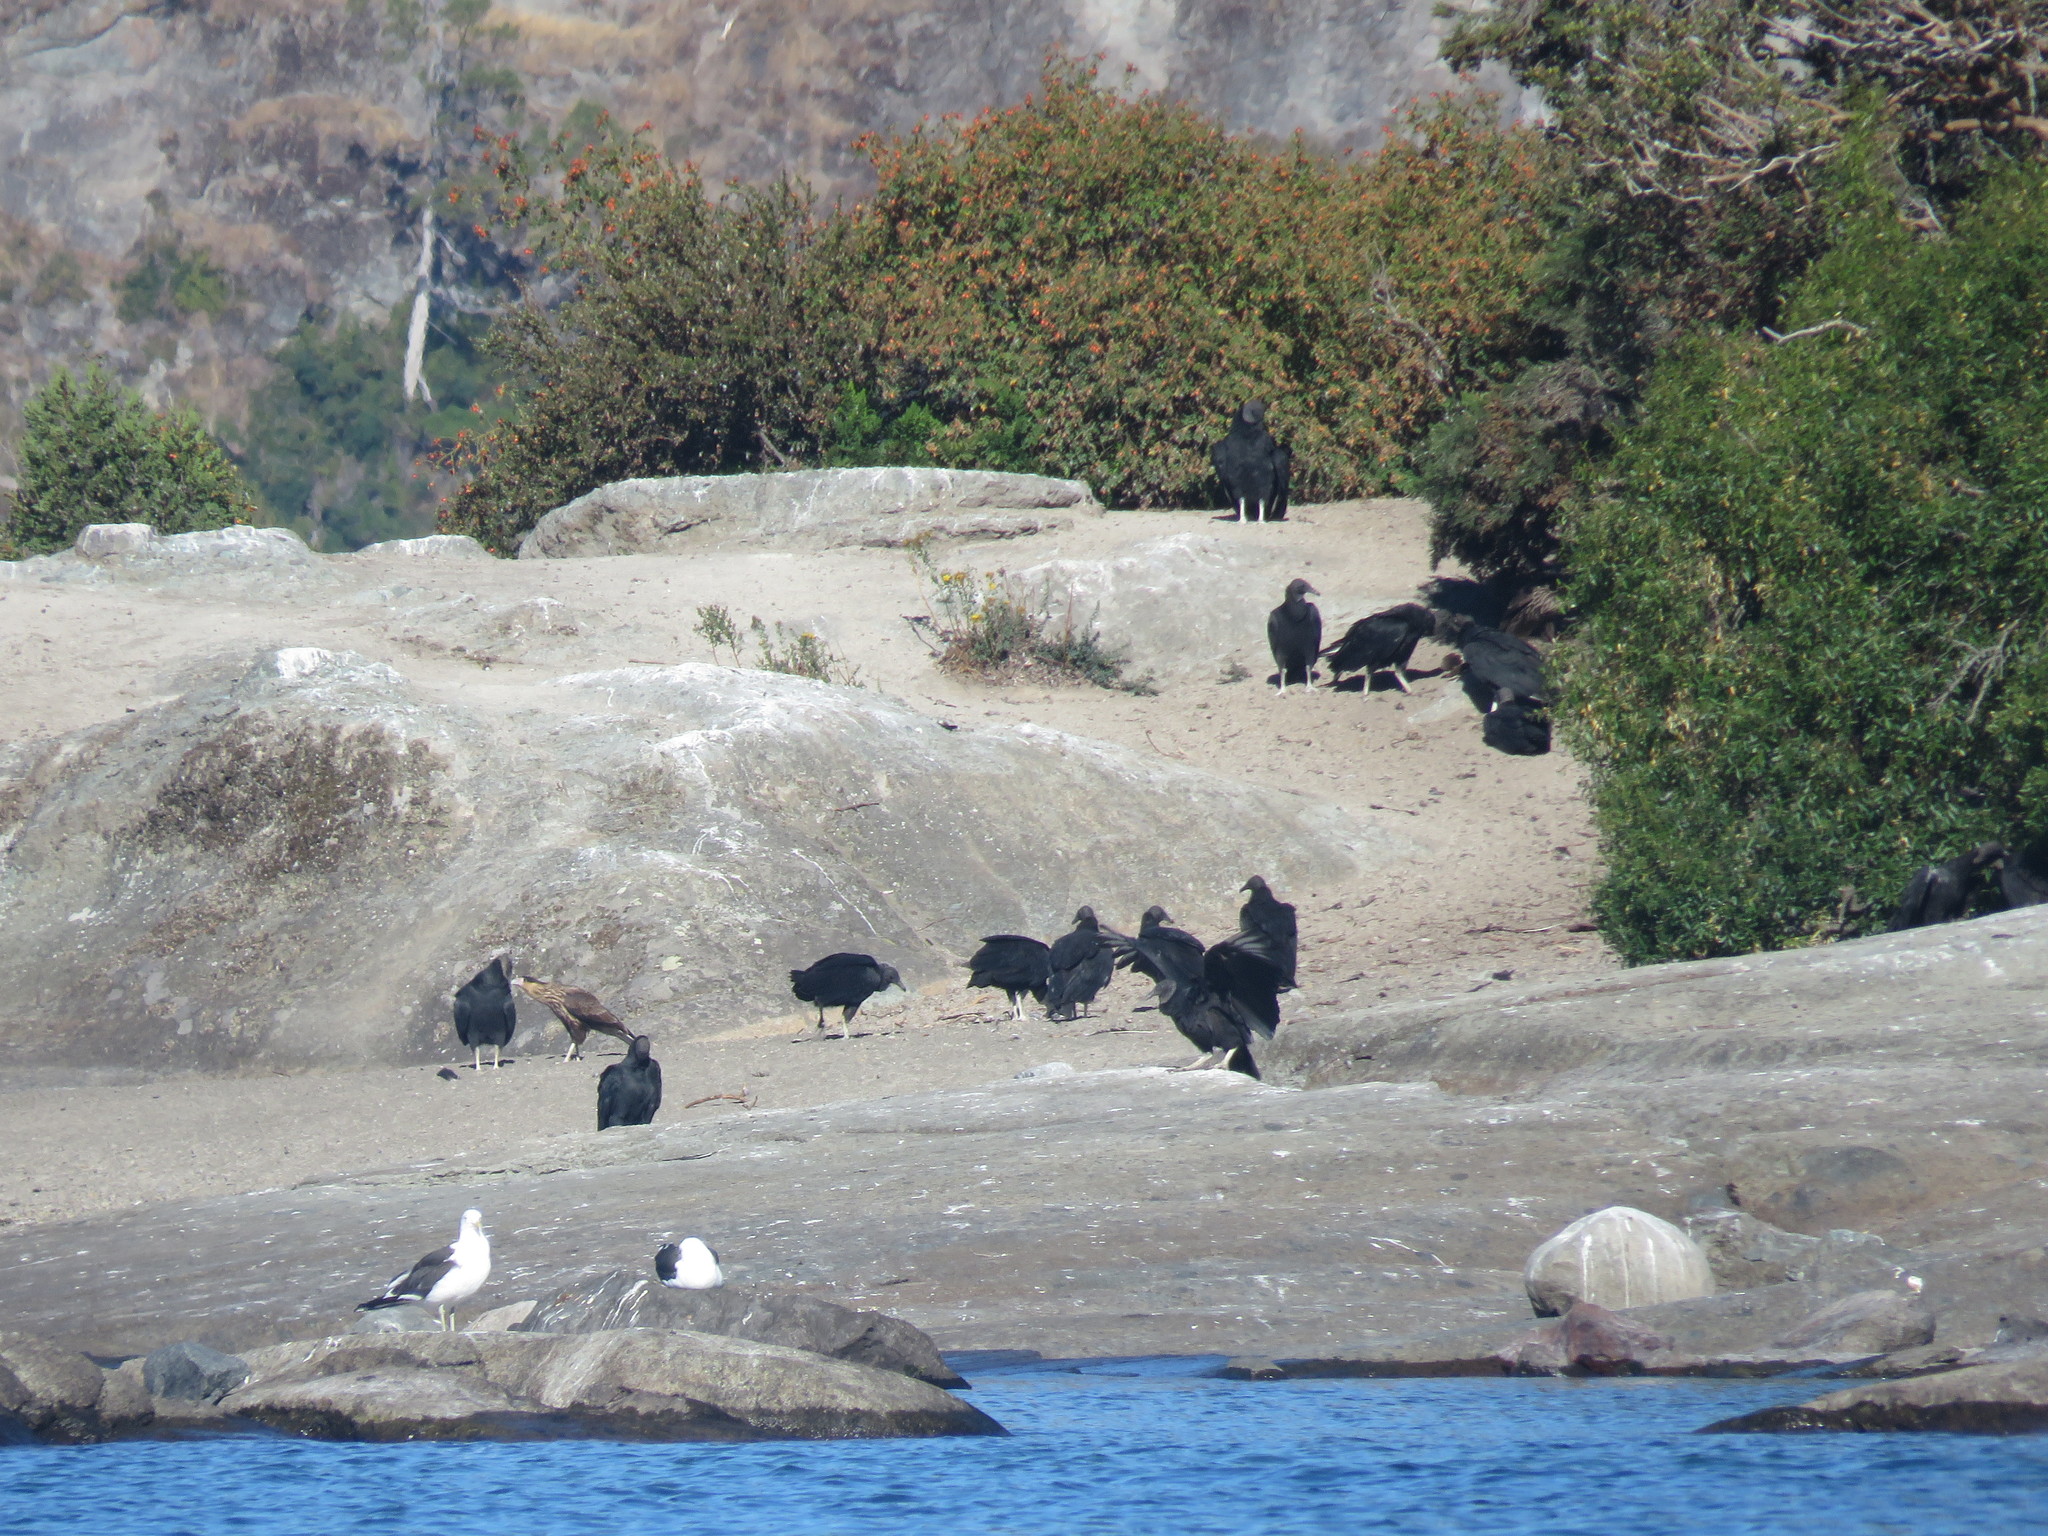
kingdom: Animalia
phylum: Chordata
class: Aves
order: Accipitriformes
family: Cathartidae
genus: Coragyps
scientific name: Coragyps atratus
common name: Black vulture
